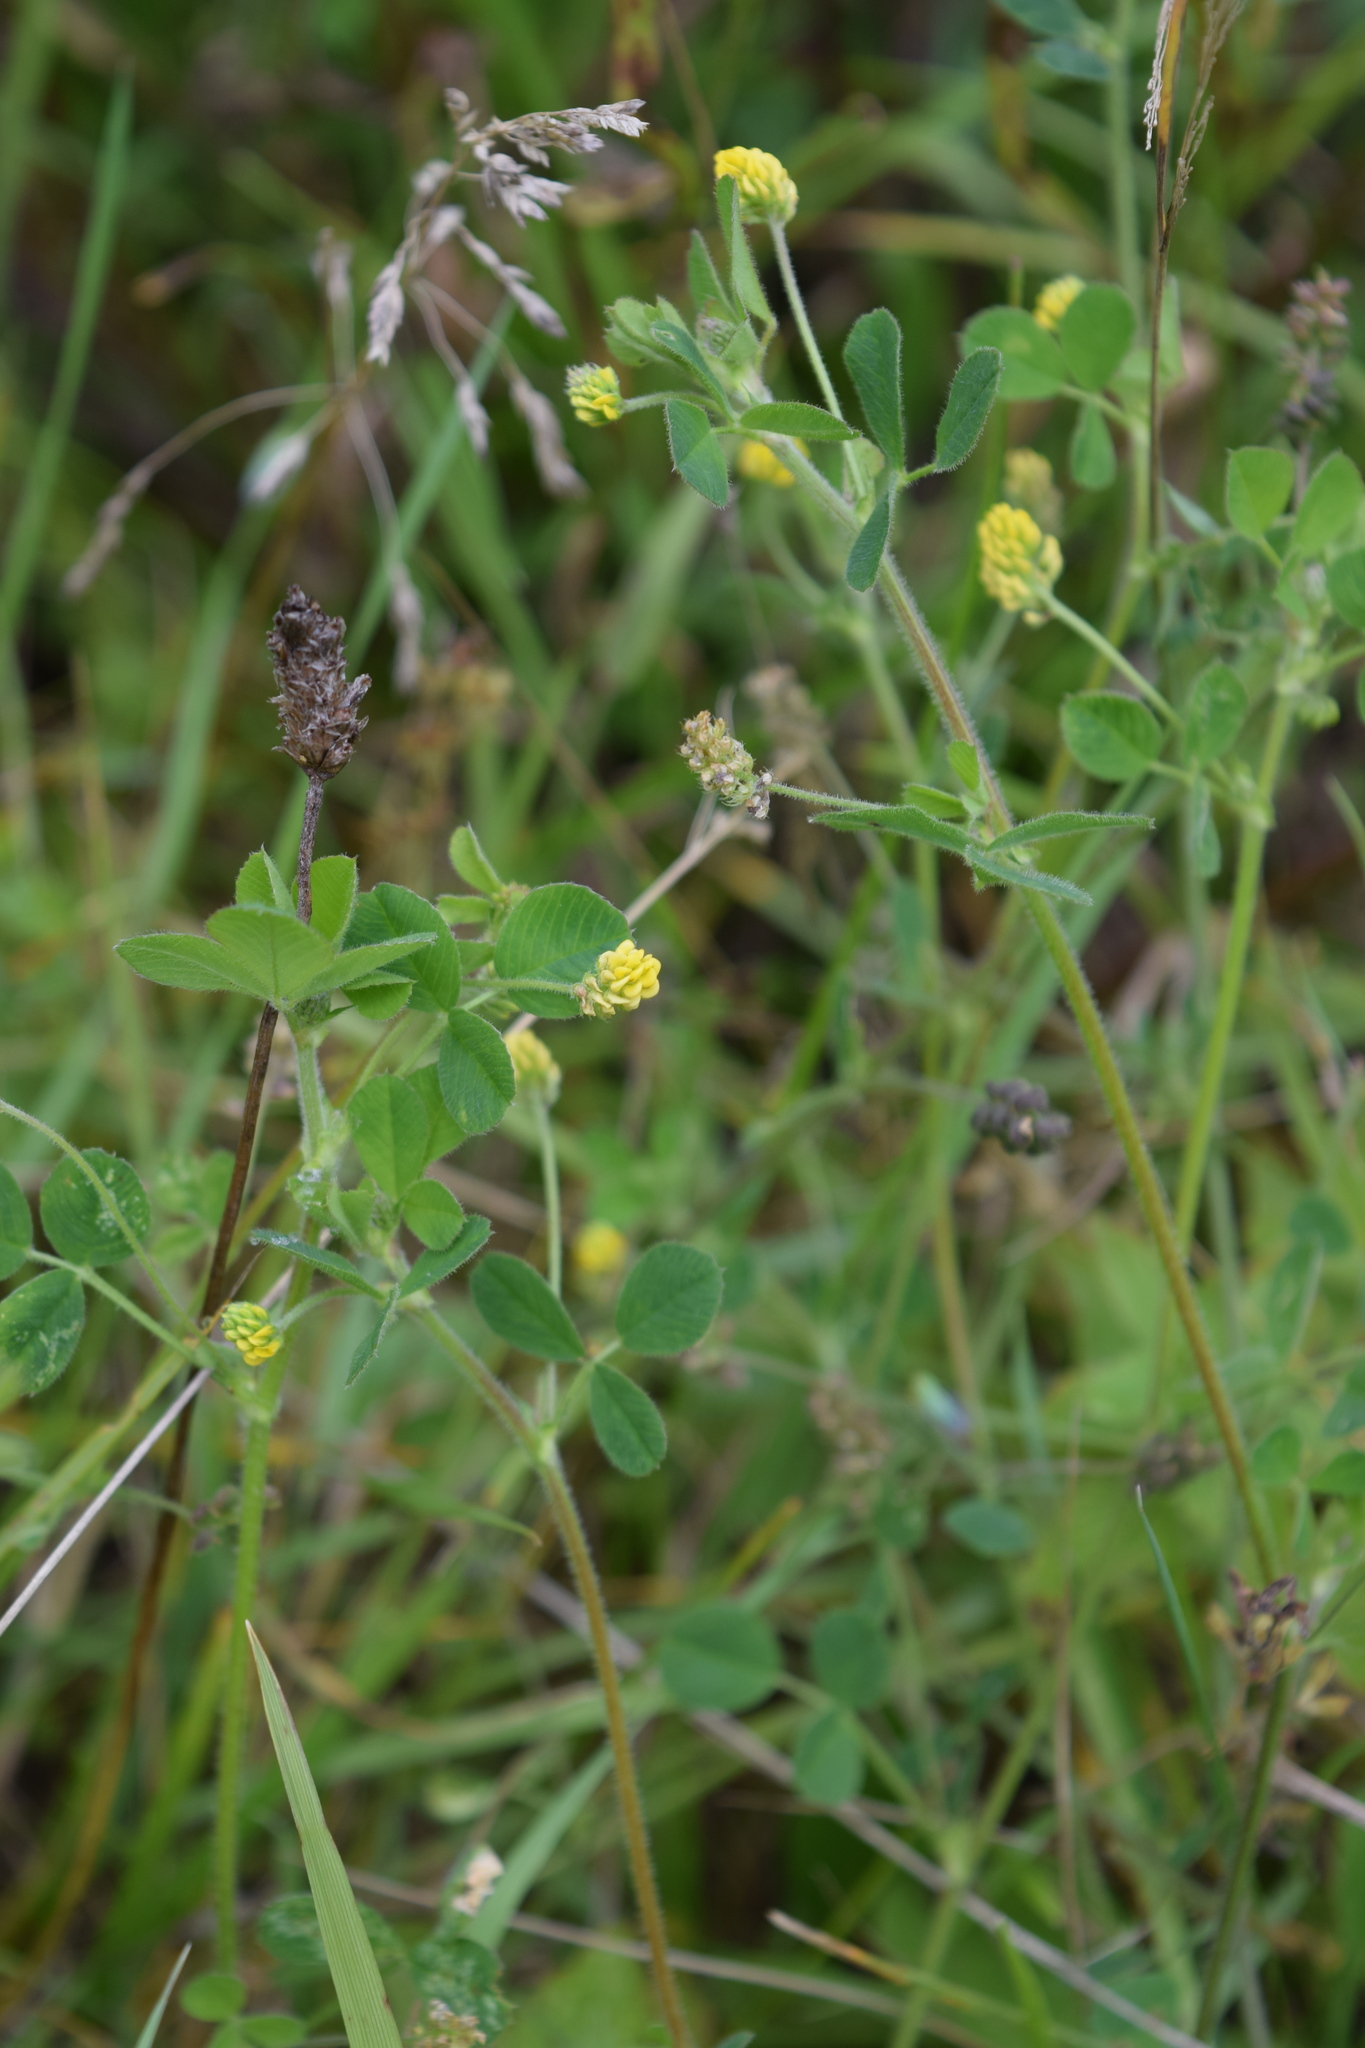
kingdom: Plantae
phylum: Tracheophyta
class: Magnoliopsida
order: Fabales
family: Fabaceae
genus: Medicago
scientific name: Medicago lupulina
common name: Black medick
